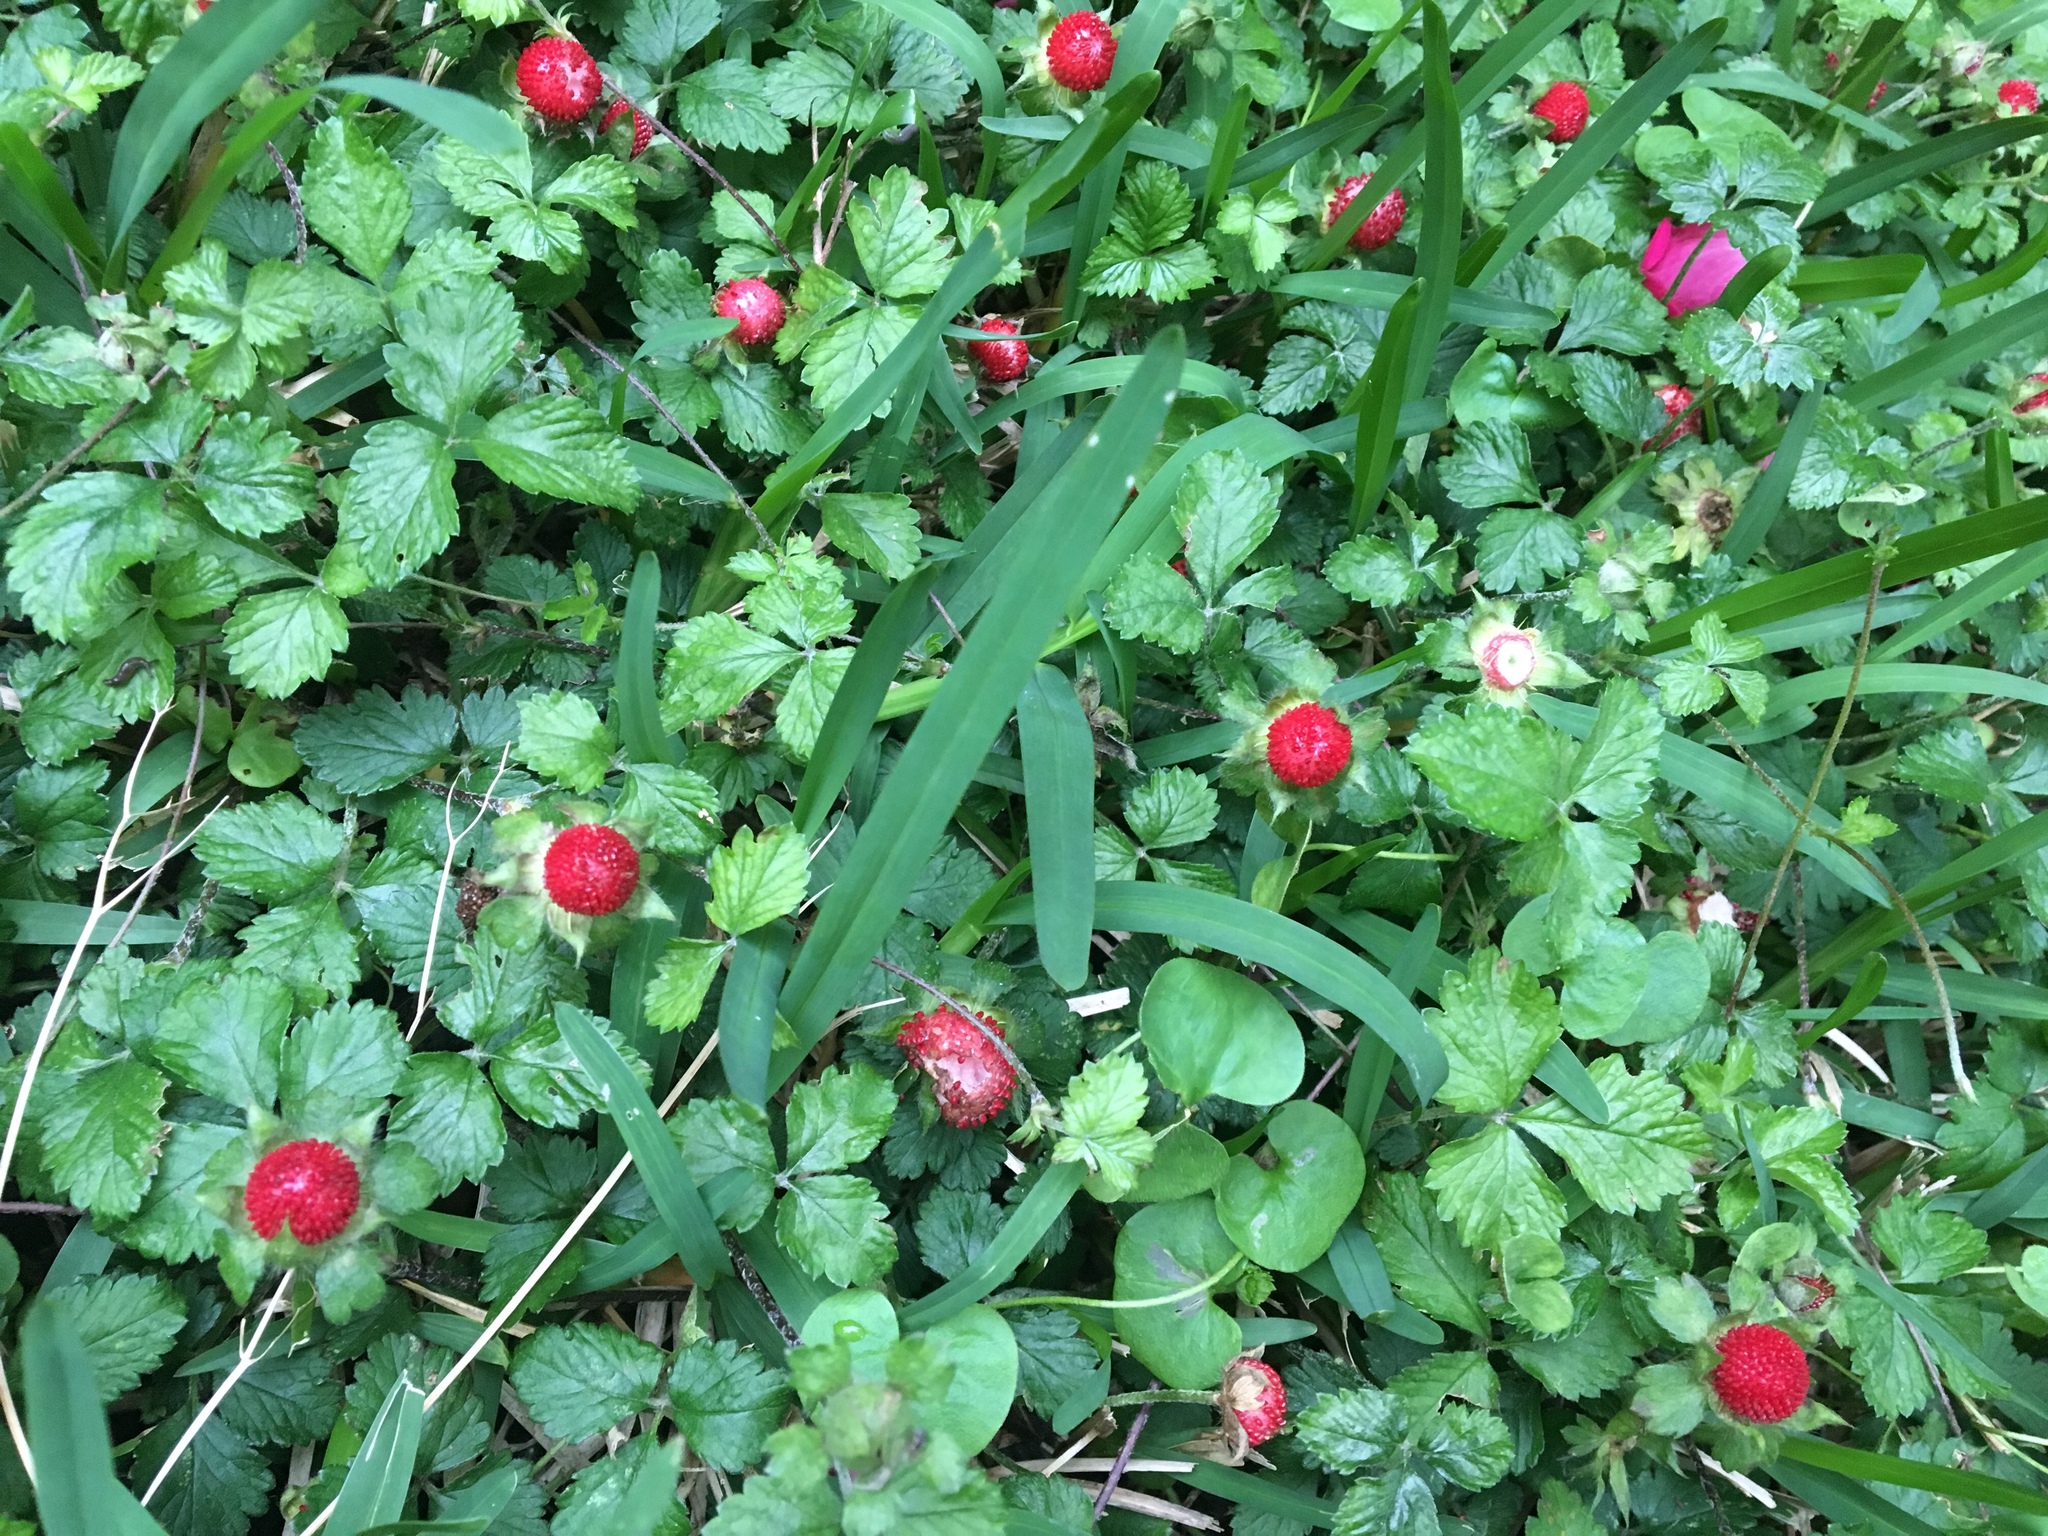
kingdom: Plantae
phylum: Tracheophyta
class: Magnoliopsida
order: Rosales
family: Rosaceae
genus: Potentilla
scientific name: Potentilla indica
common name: Yellow-flowered strawberry
